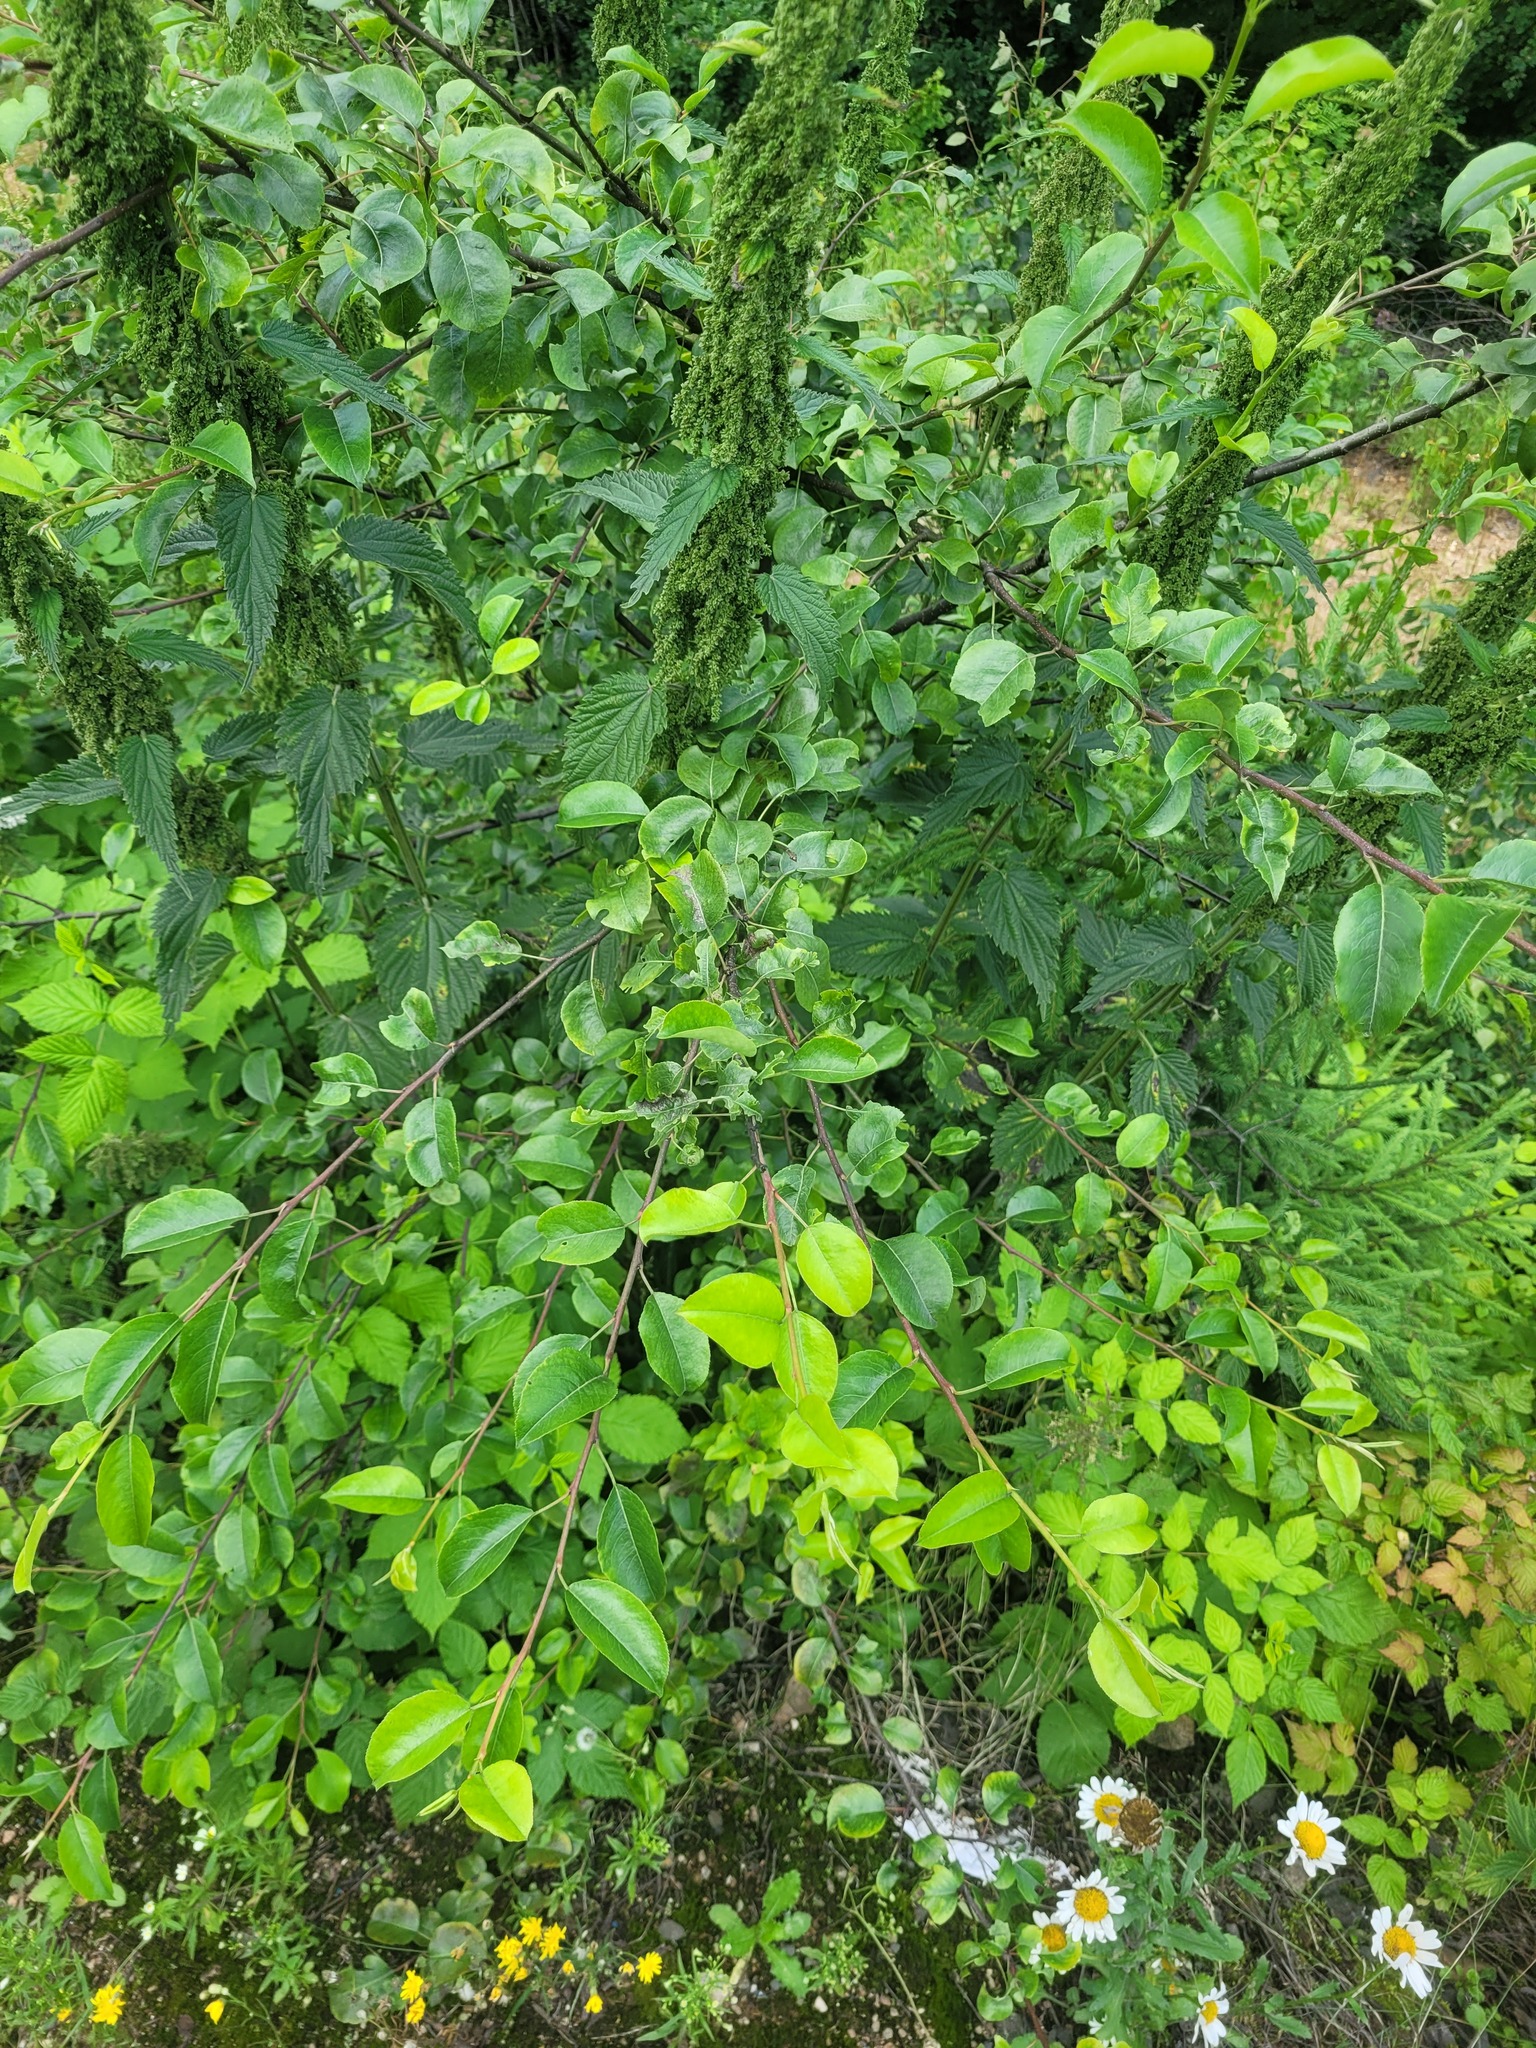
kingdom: Plantae
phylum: Tracheophyta
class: Magnoliopsida
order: Rosales
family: Rosaceae
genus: Pyrus
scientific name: Pyrus communis
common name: Pear
